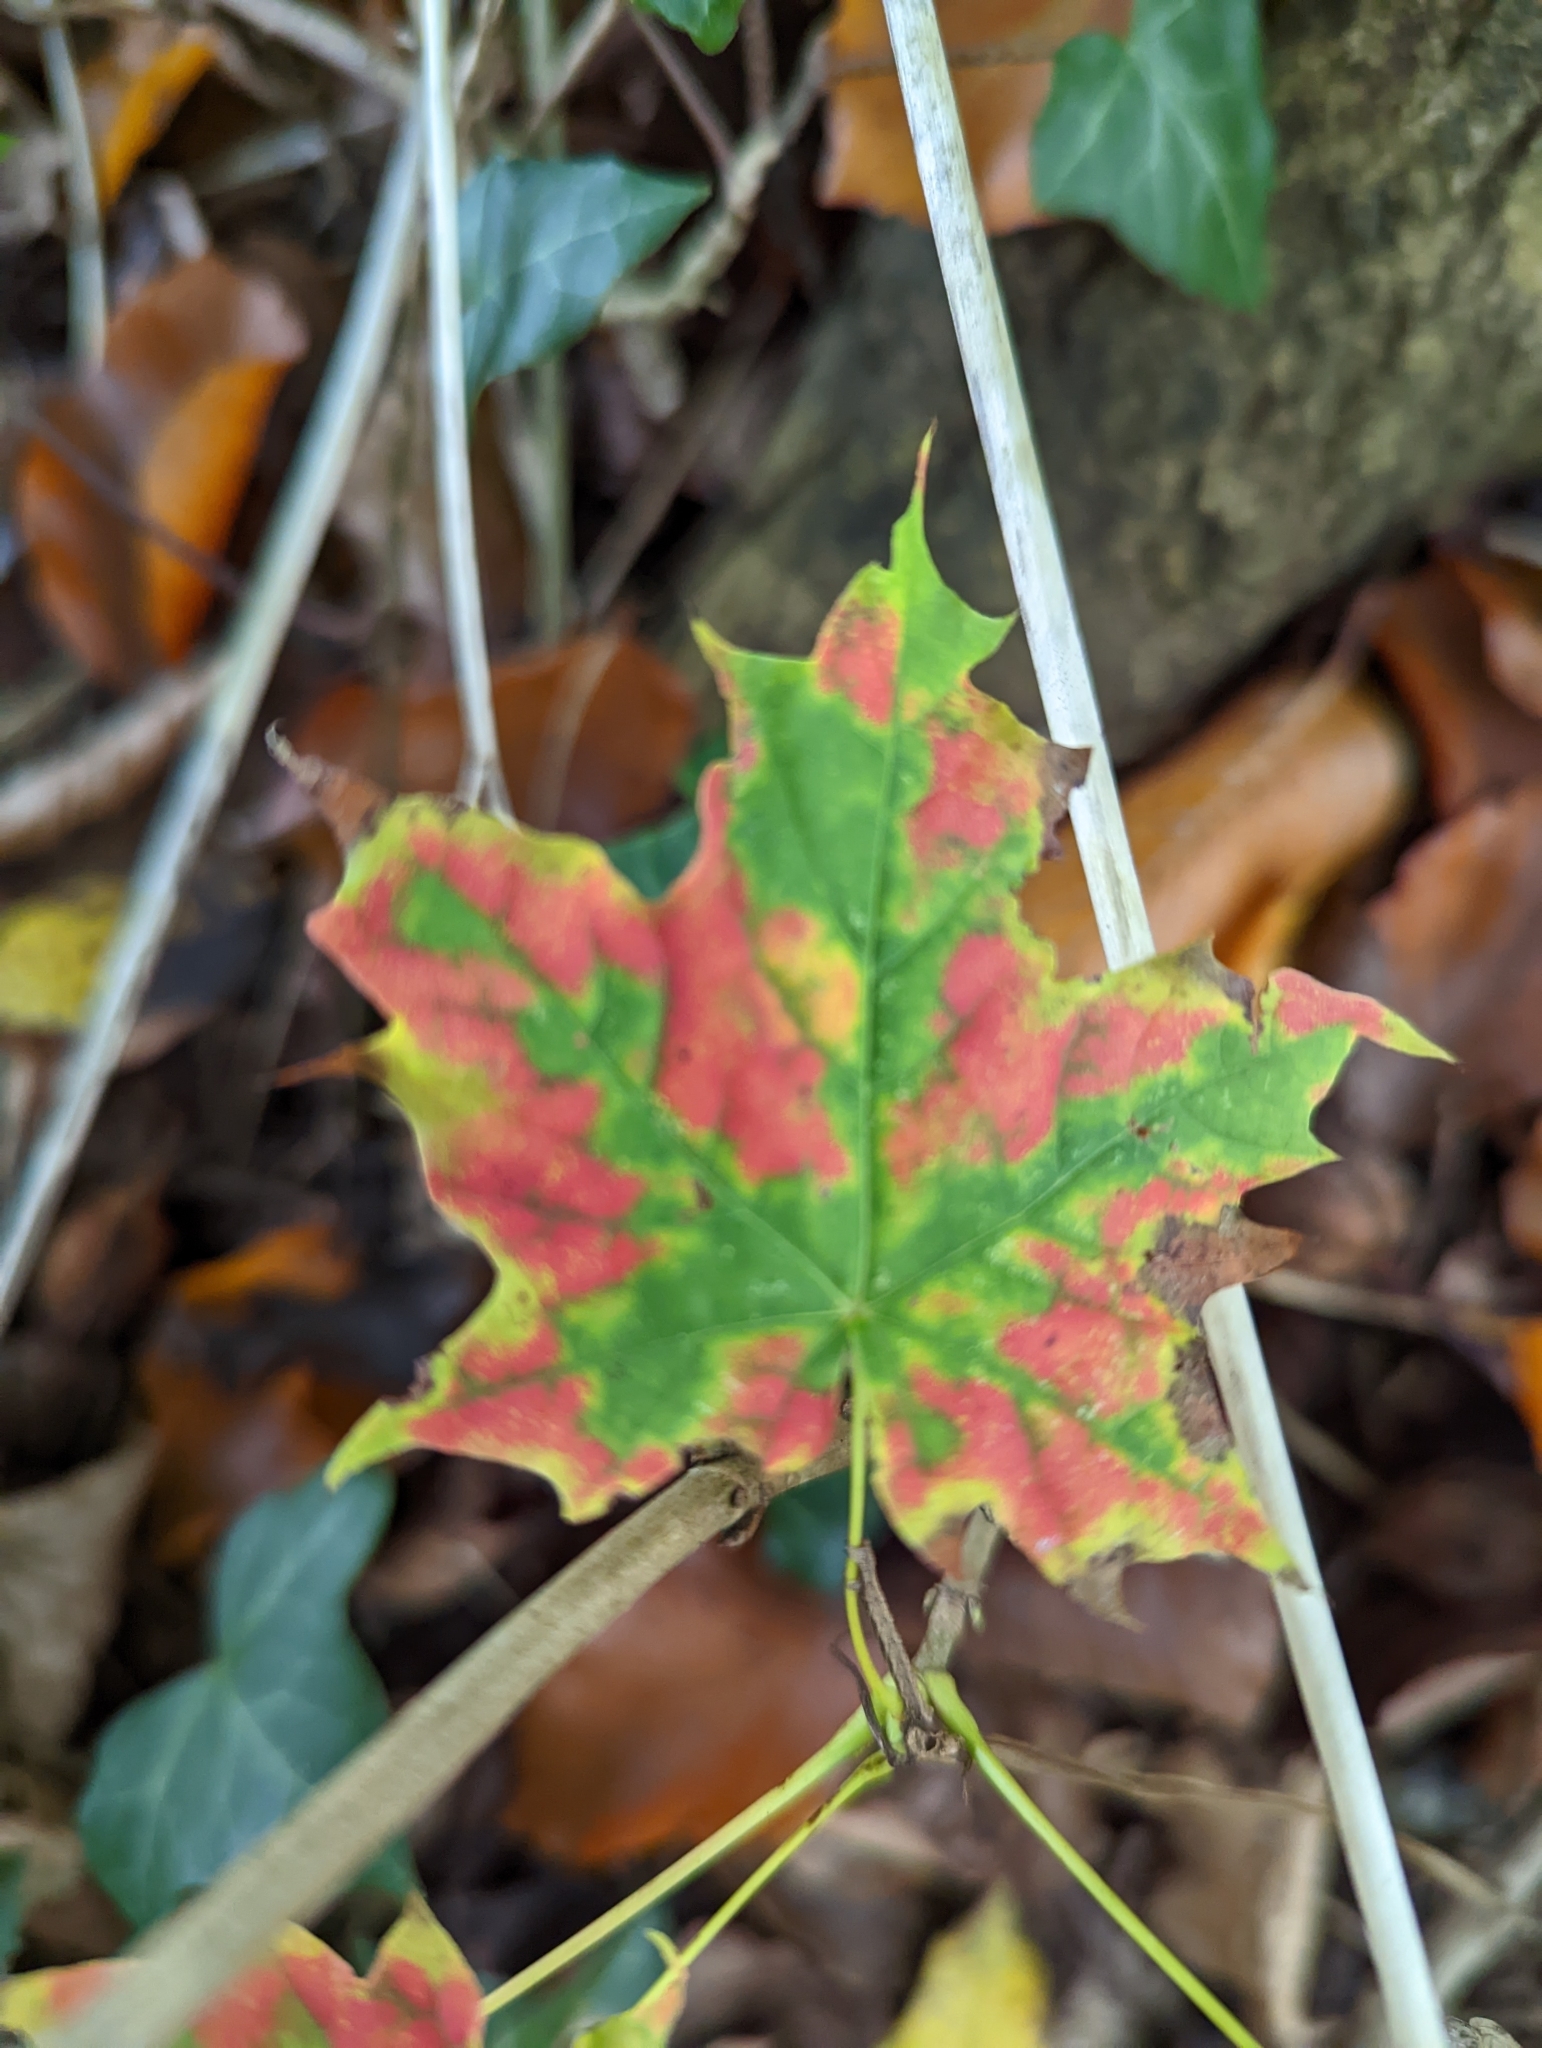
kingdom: Plantae
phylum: Tracheophyta
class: Magnoliopsida
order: Sapindales
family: Sapindaceae
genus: Acer
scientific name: Acer platanoides
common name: Norway maple
